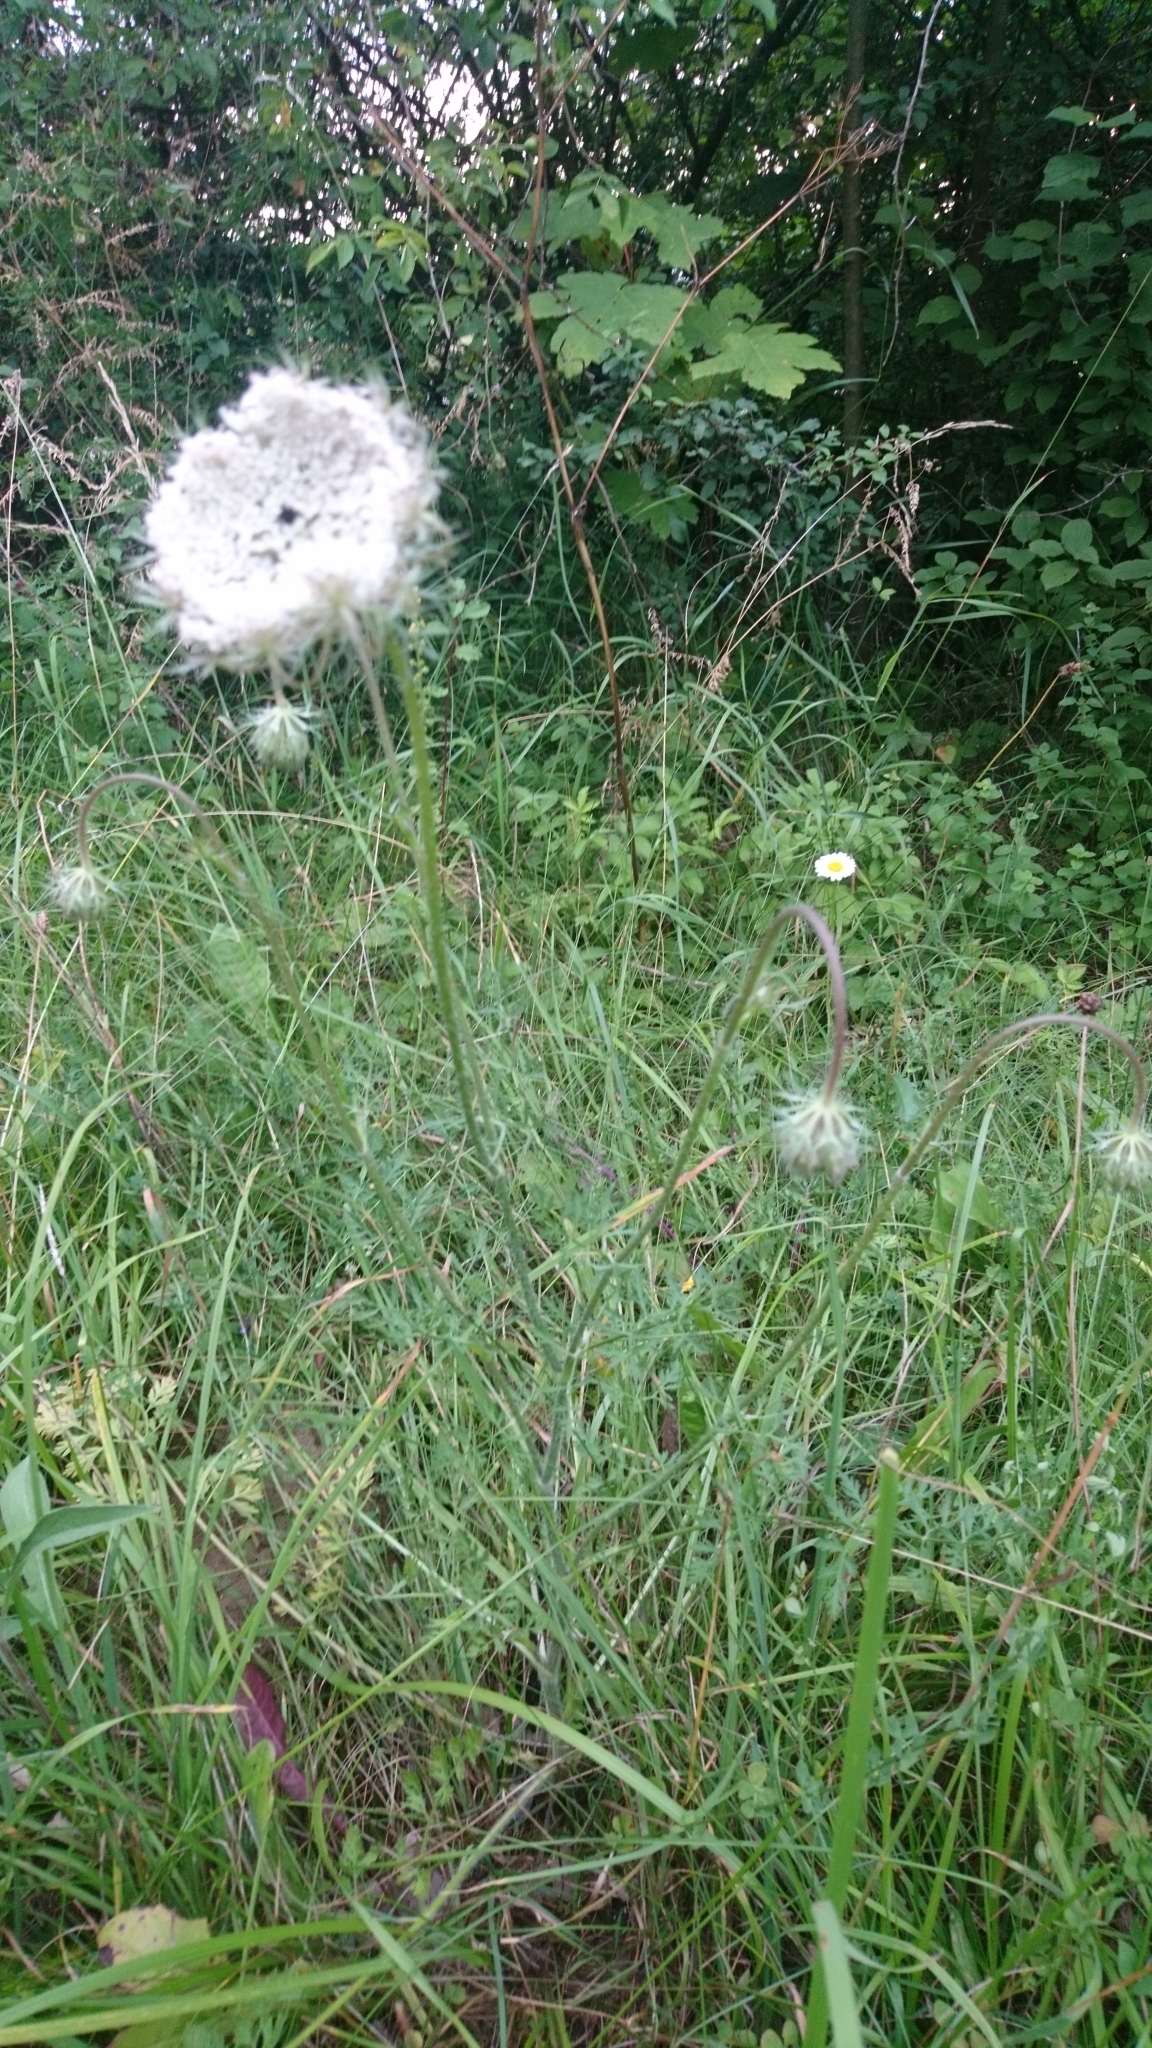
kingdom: Plantae
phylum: Tracheophyta
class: Magnoliopsida
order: Apiales
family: Apiaceae
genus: Daucus
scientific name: Daucus carota
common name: Wild carrot
